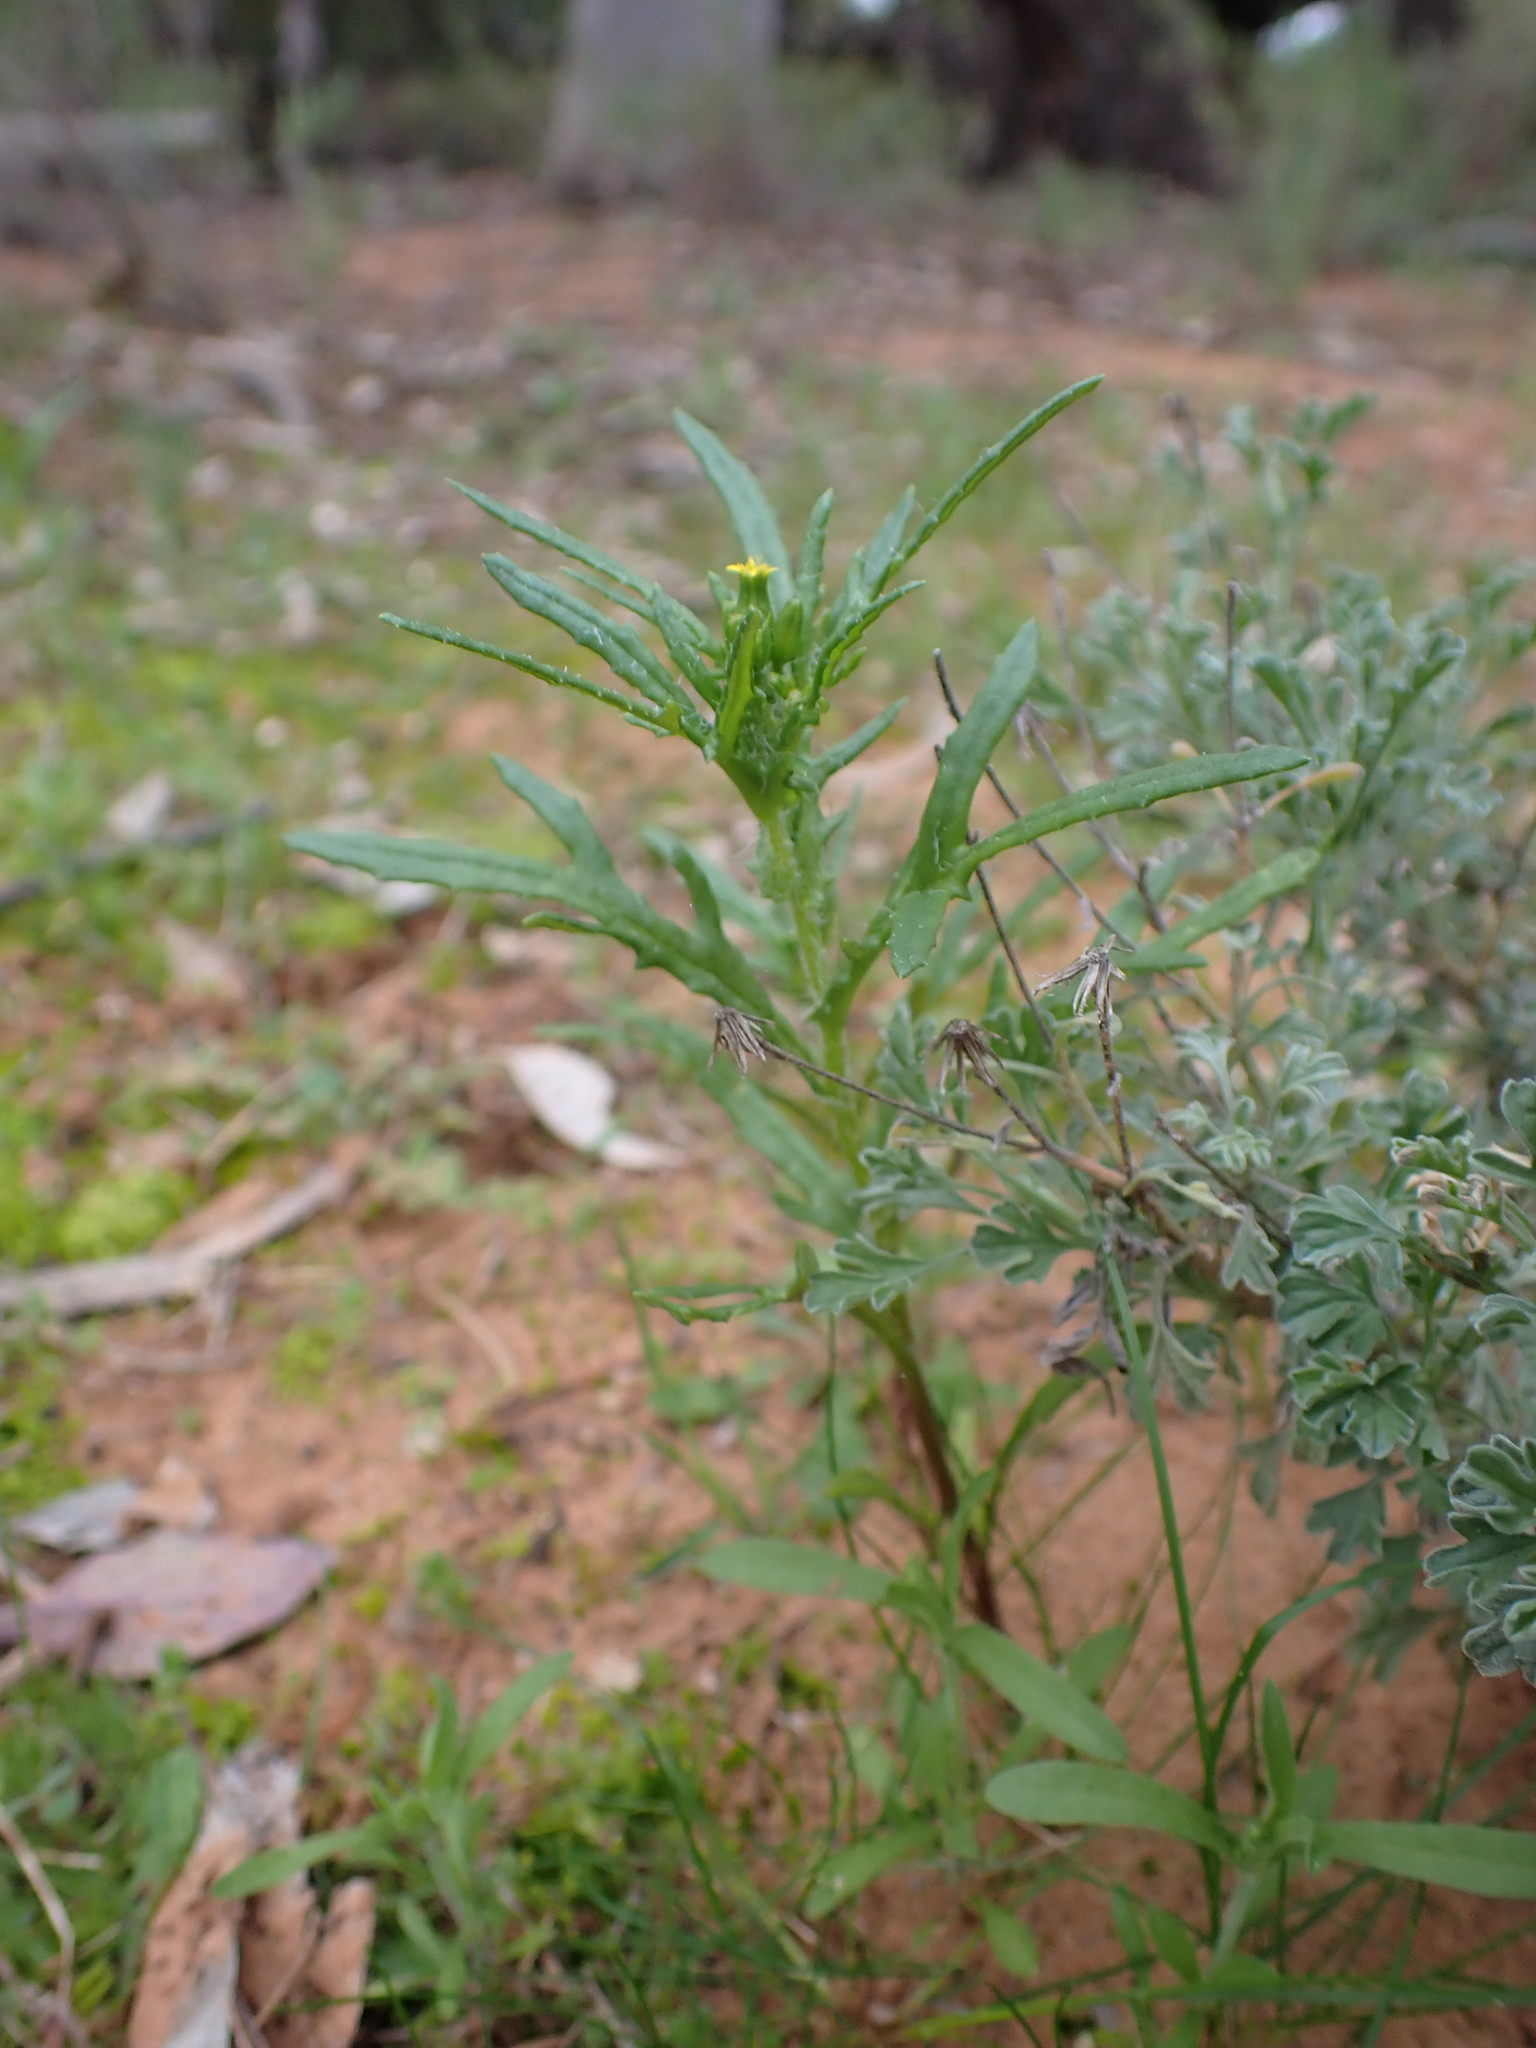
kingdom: Plantae
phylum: Tracheophyta
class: Magnoliopsida
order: Asterales
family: Asteraceae
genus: Senecio
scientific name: Senecio glossanthus
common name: Slender groundsel
